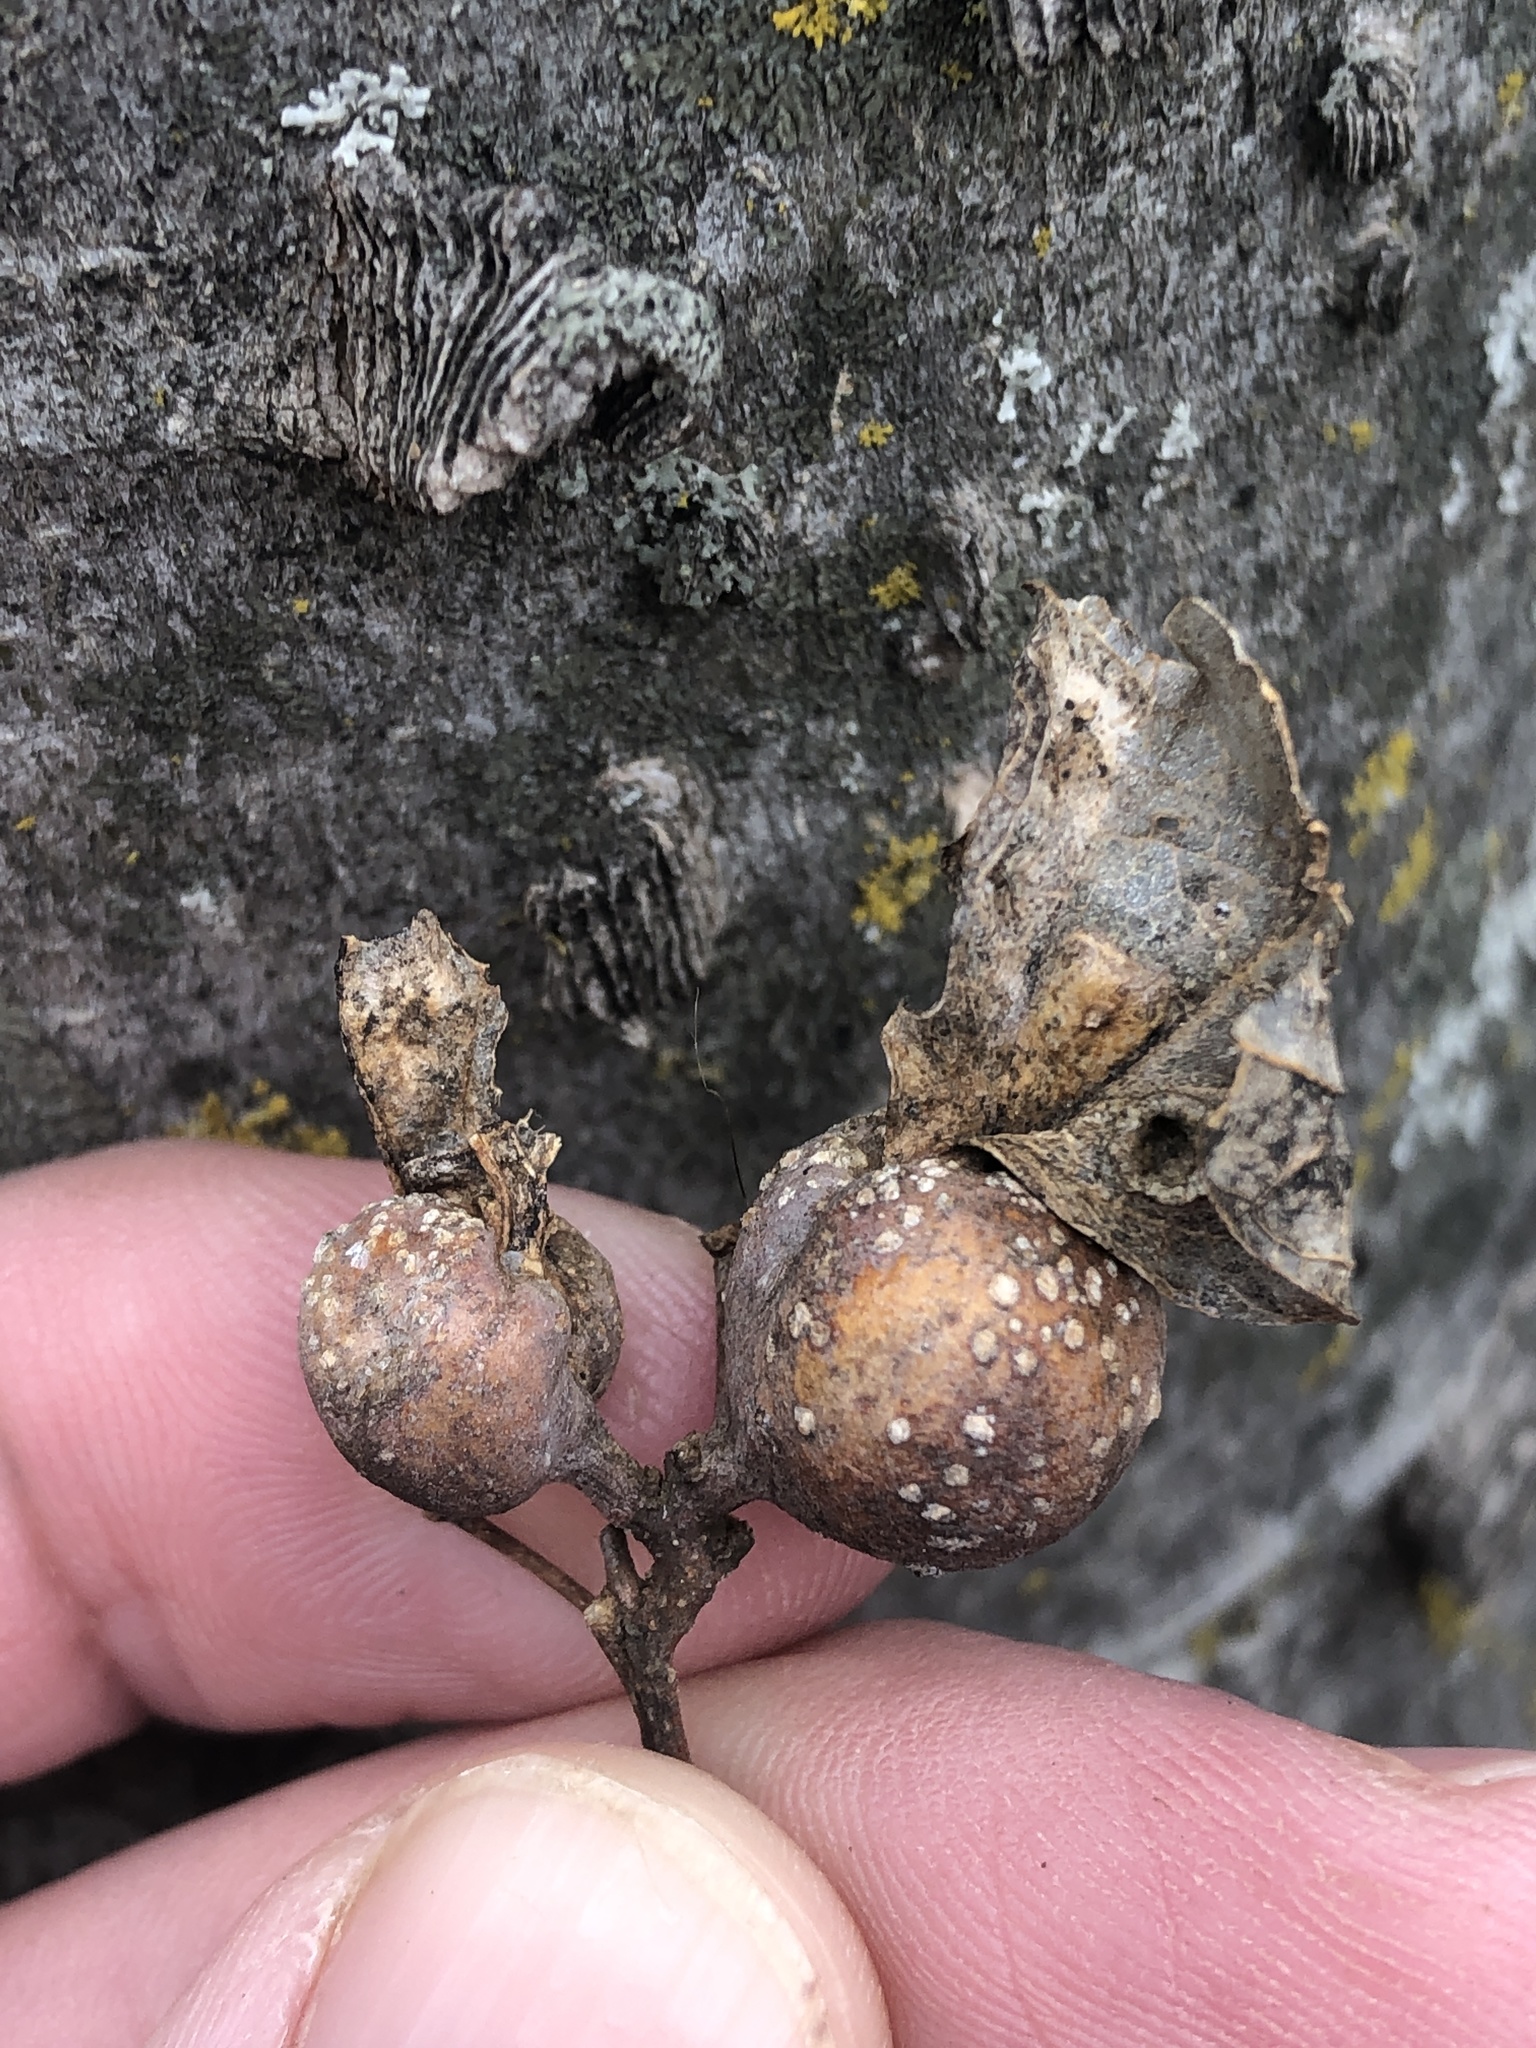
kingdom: Animalia
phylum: Arthropoda
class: Insecta
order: Hemiptera
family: Aphalaridae
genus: Pachypsylla
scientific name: Pachypsylla venusta
